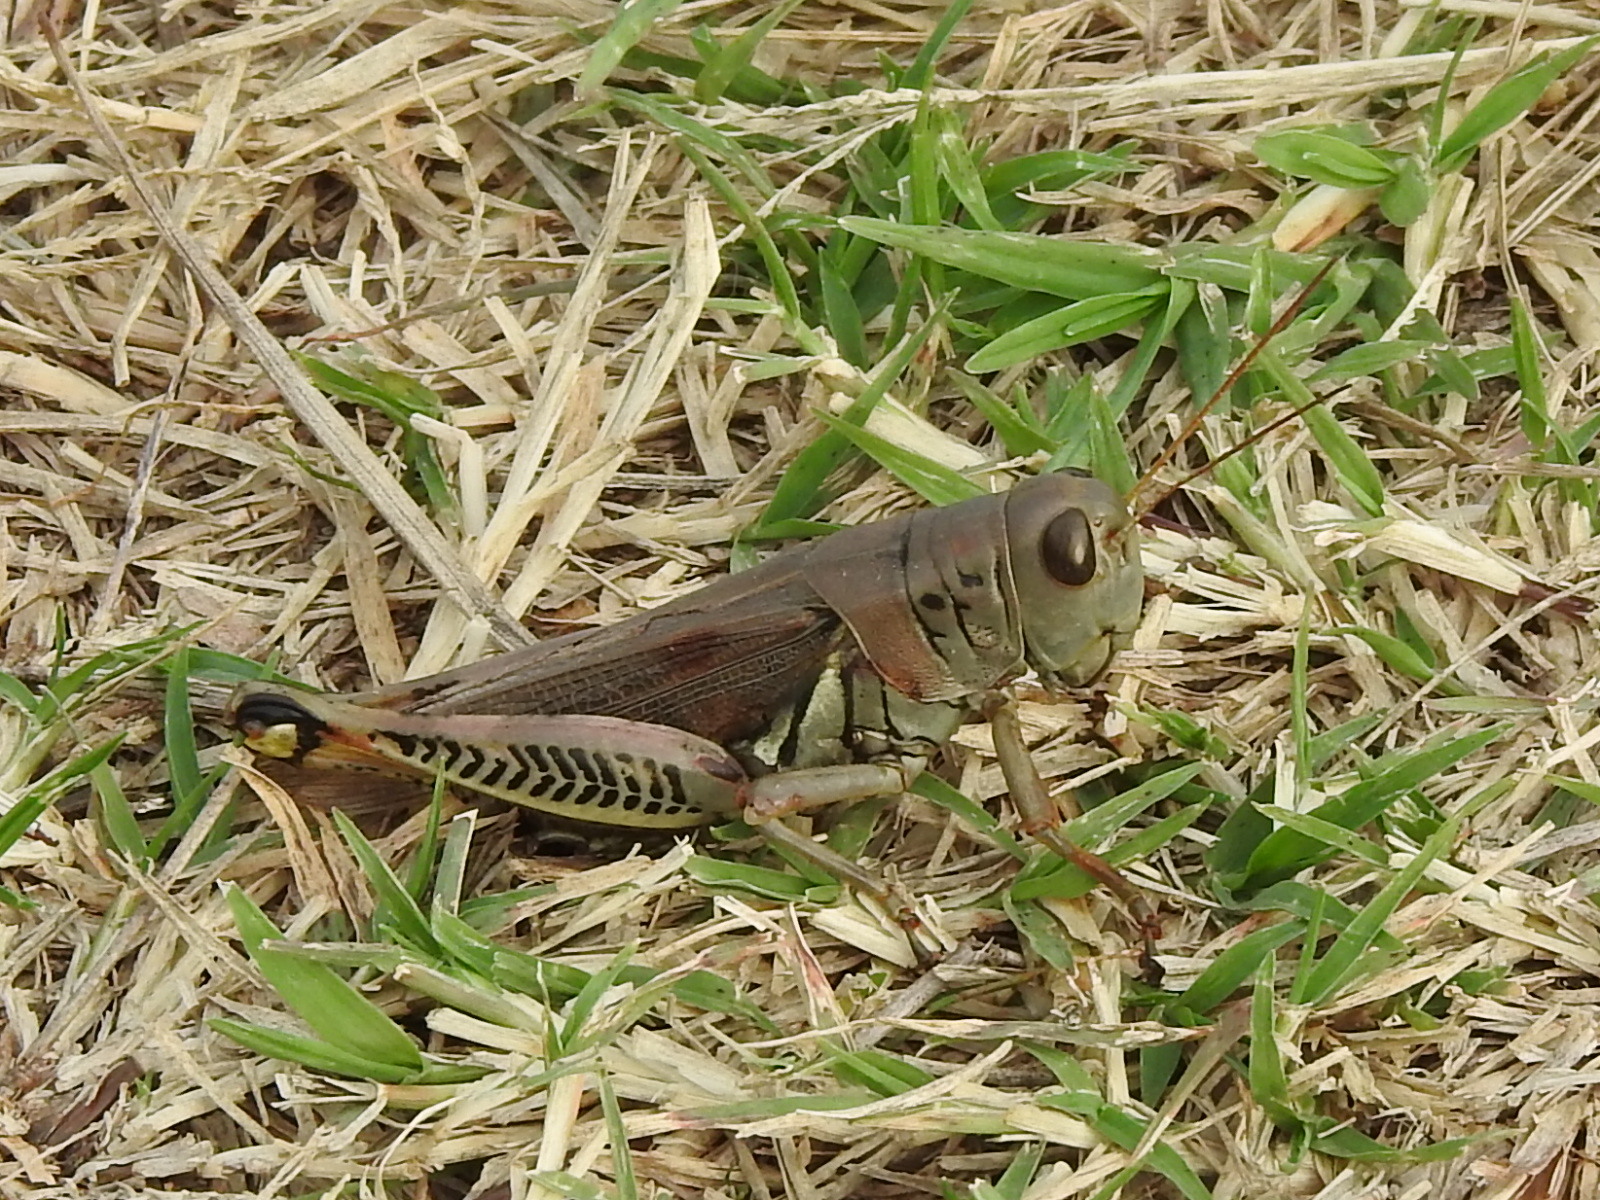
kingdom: Animalia
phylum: Arthropoda
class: Insecta
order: Orthoptera
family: Acrididae
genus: Melanoplus
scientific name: Melanoplus differentialis
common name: Differential grasshopper
